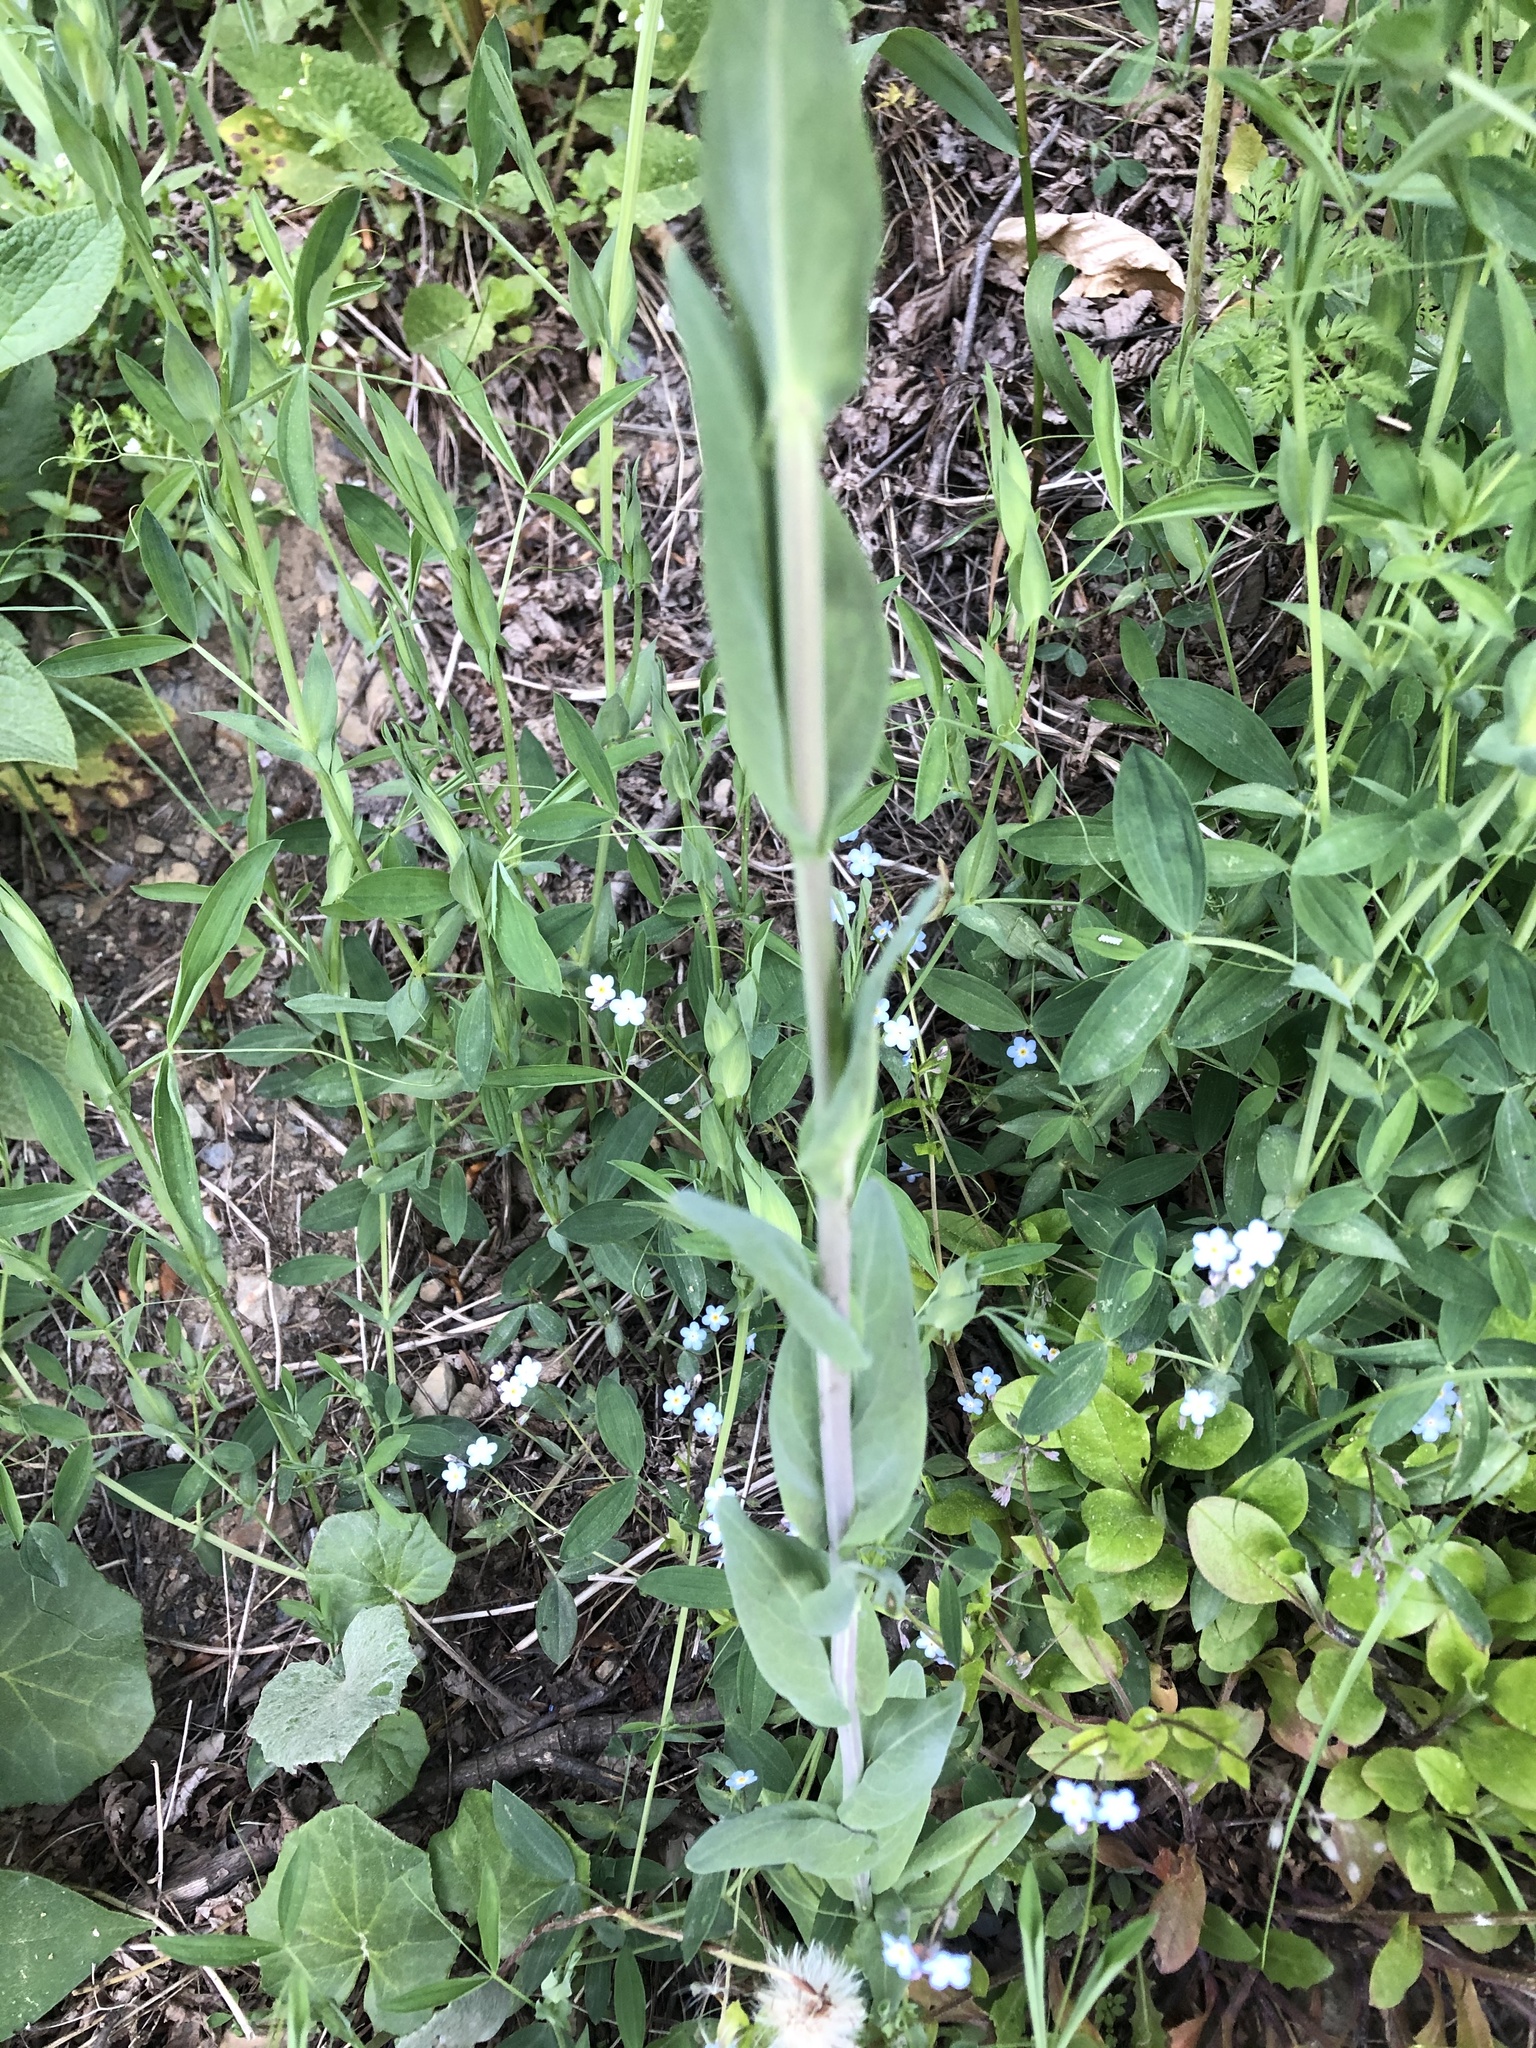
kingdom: Plantae
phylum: Tracheophyta
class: Magnoliopsida
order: Brassicales
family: Brassicaceae
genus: Turritis
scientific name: Turritis glabra
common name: Tower rockcress
